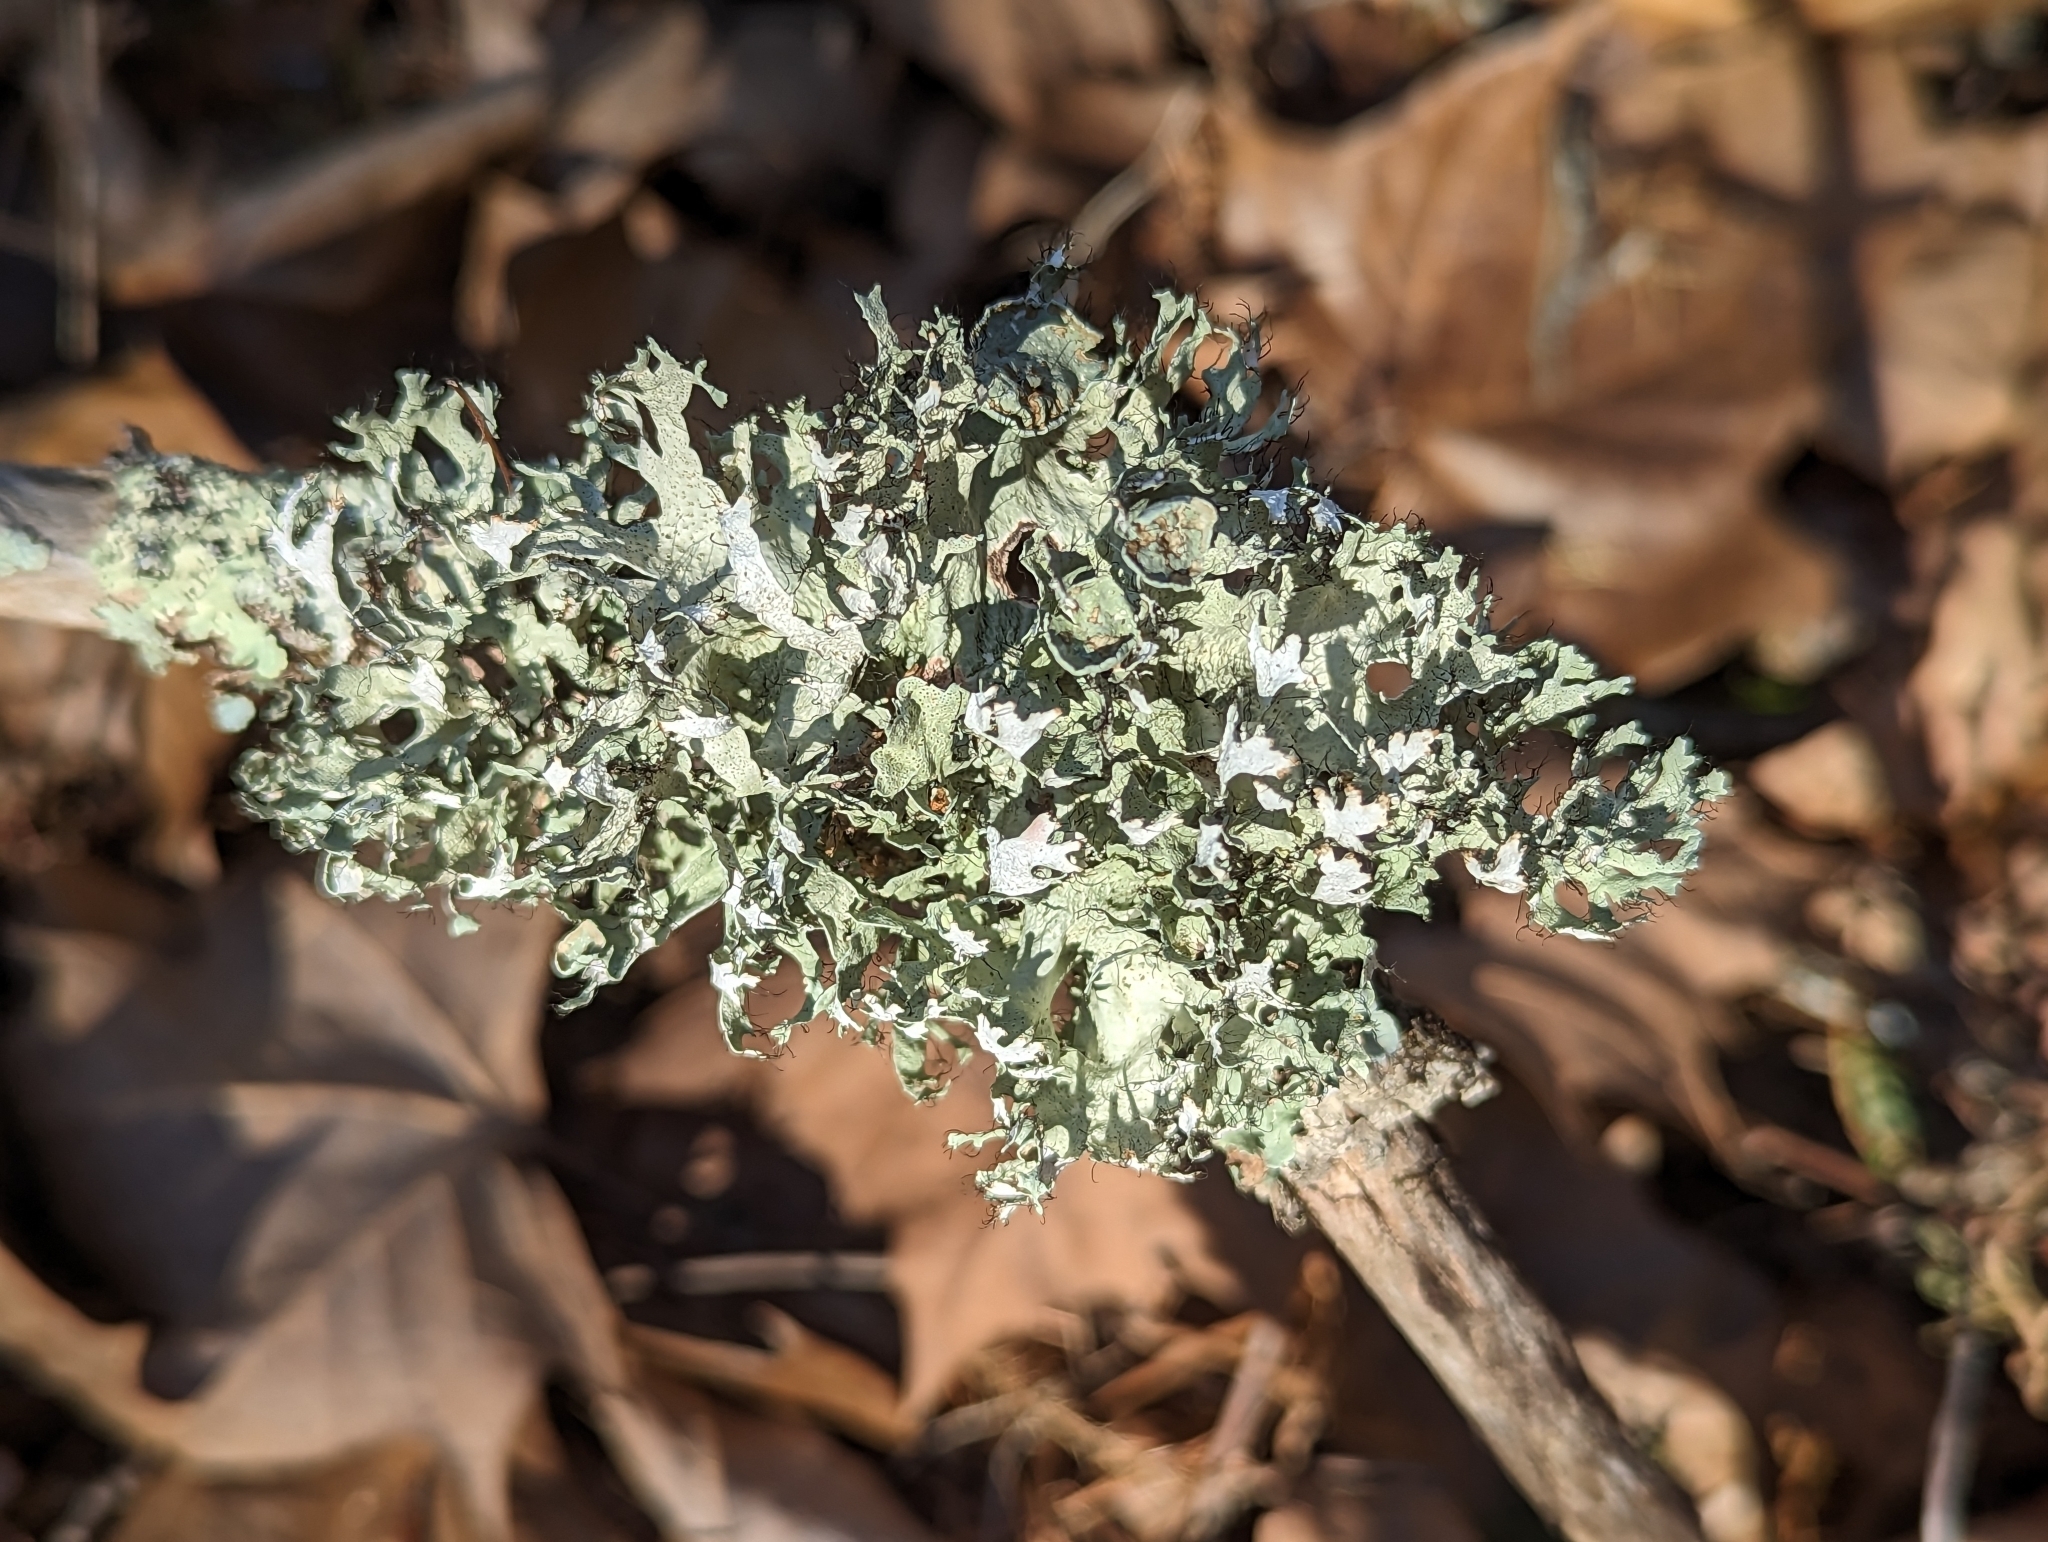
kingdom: Fungi
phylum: Ascomycota
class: Lecanoromycetes
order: Lecanorales
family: Parmeliaceae
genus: Parmotrema
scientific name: Parmotrema perforatum
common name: Perforated ruffle lichen
